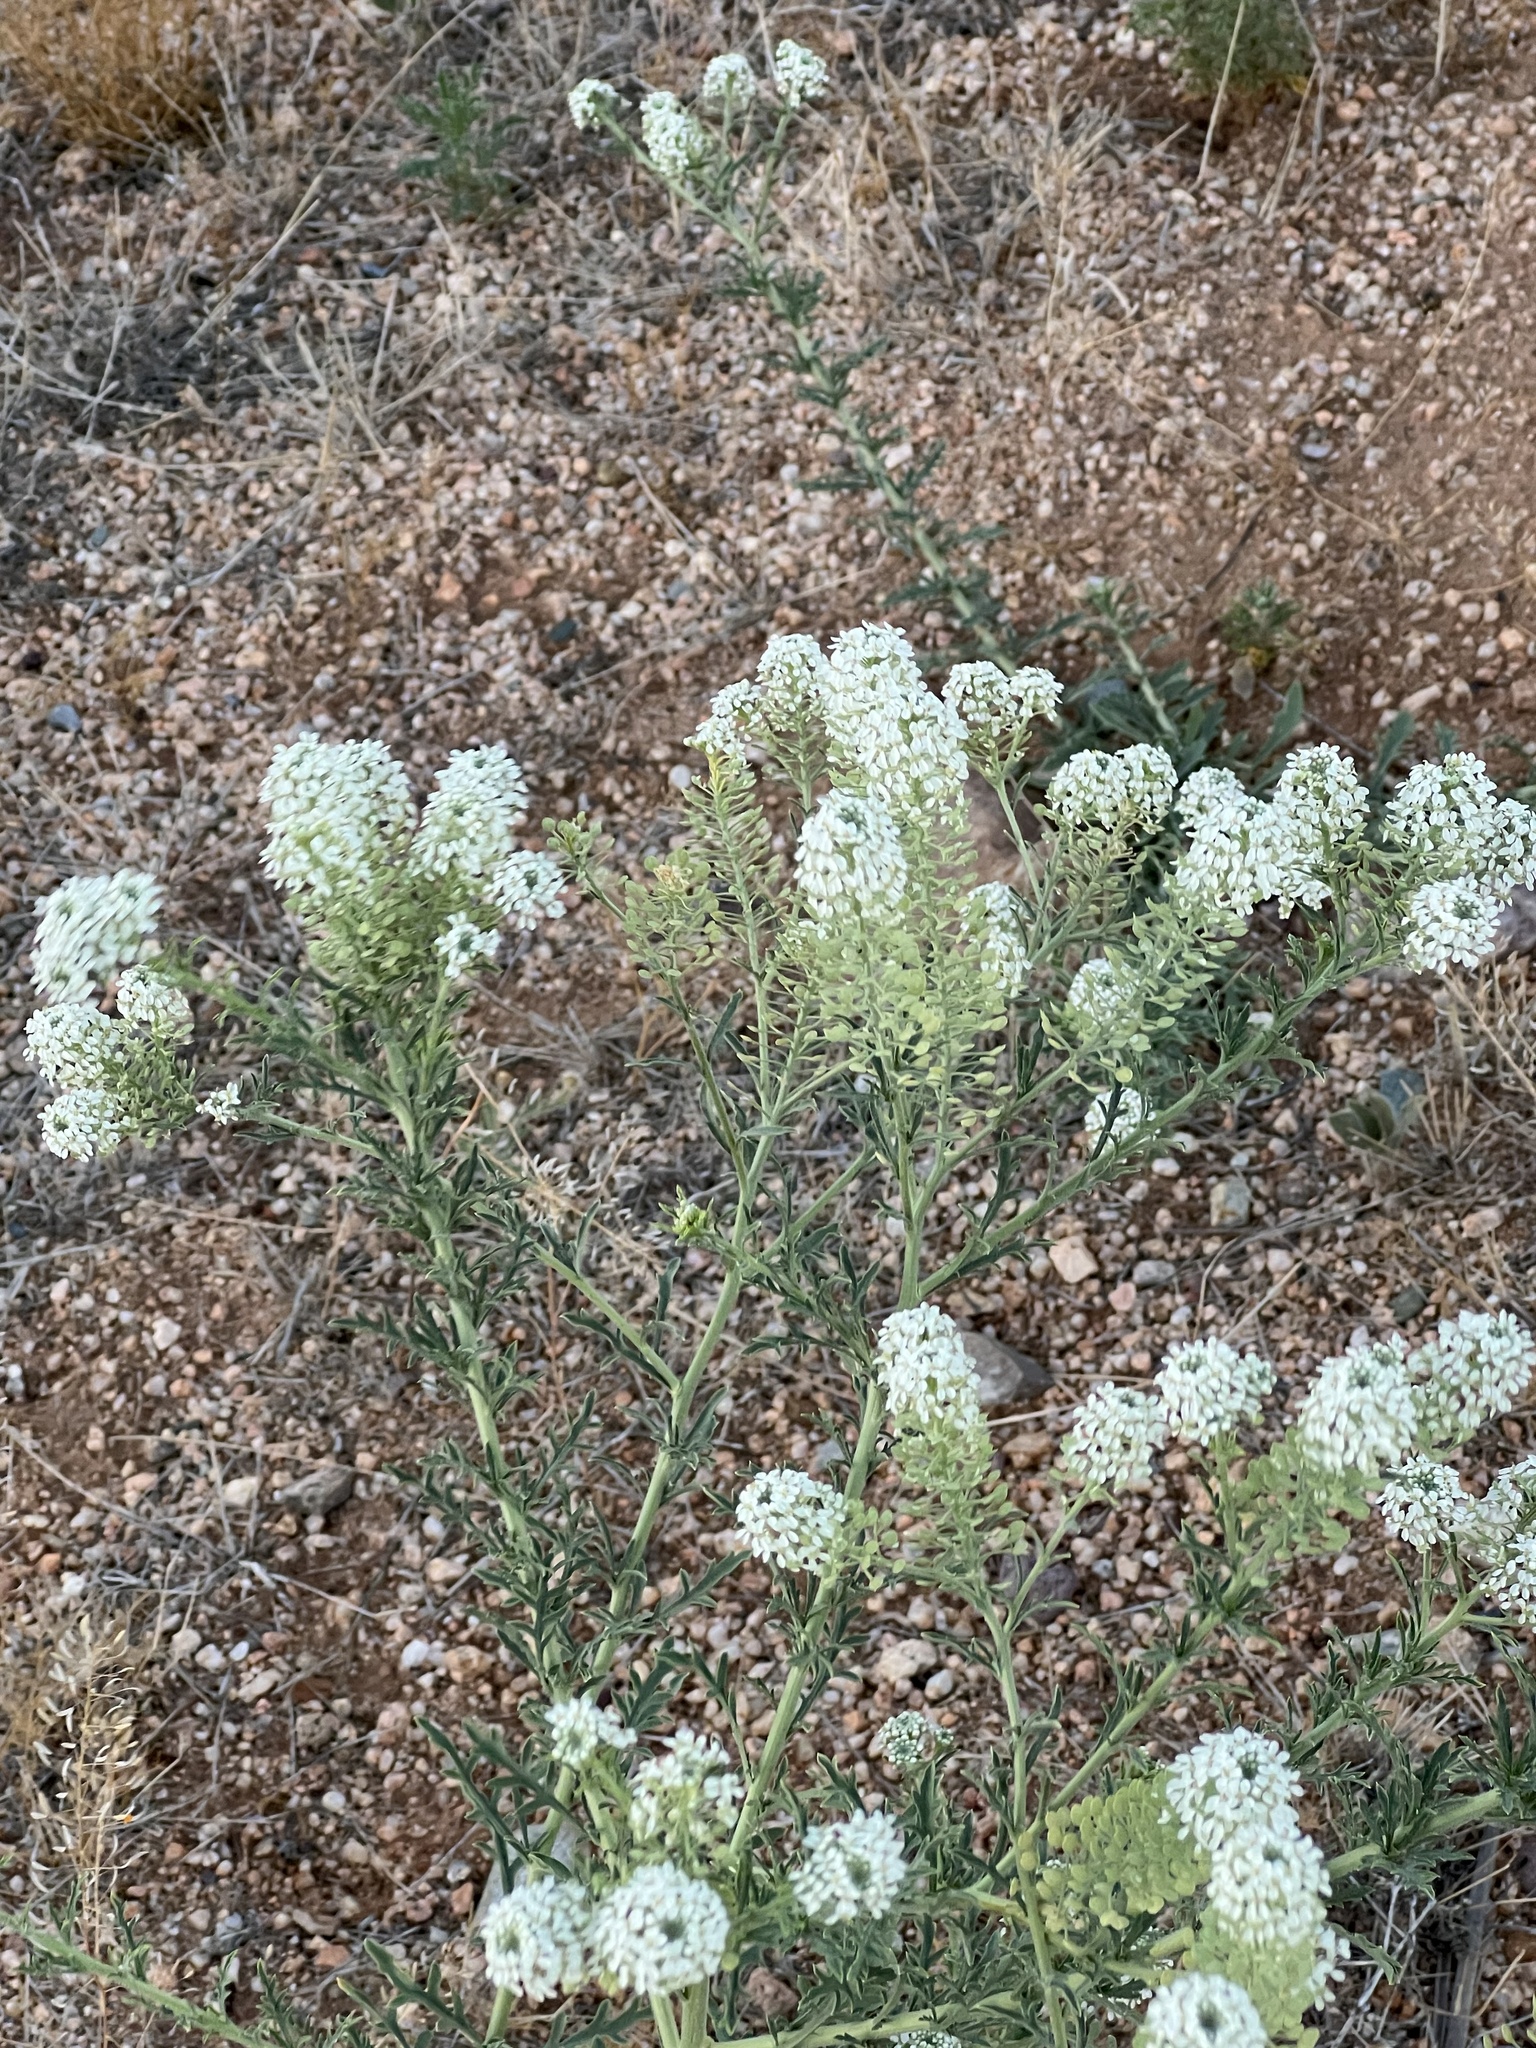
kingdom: Plantae
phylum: Tracheophyta
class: Magnoliopsida
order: Brassicales
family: Brassicaceae
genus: Lepidium
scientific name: Lepidium thurberi
